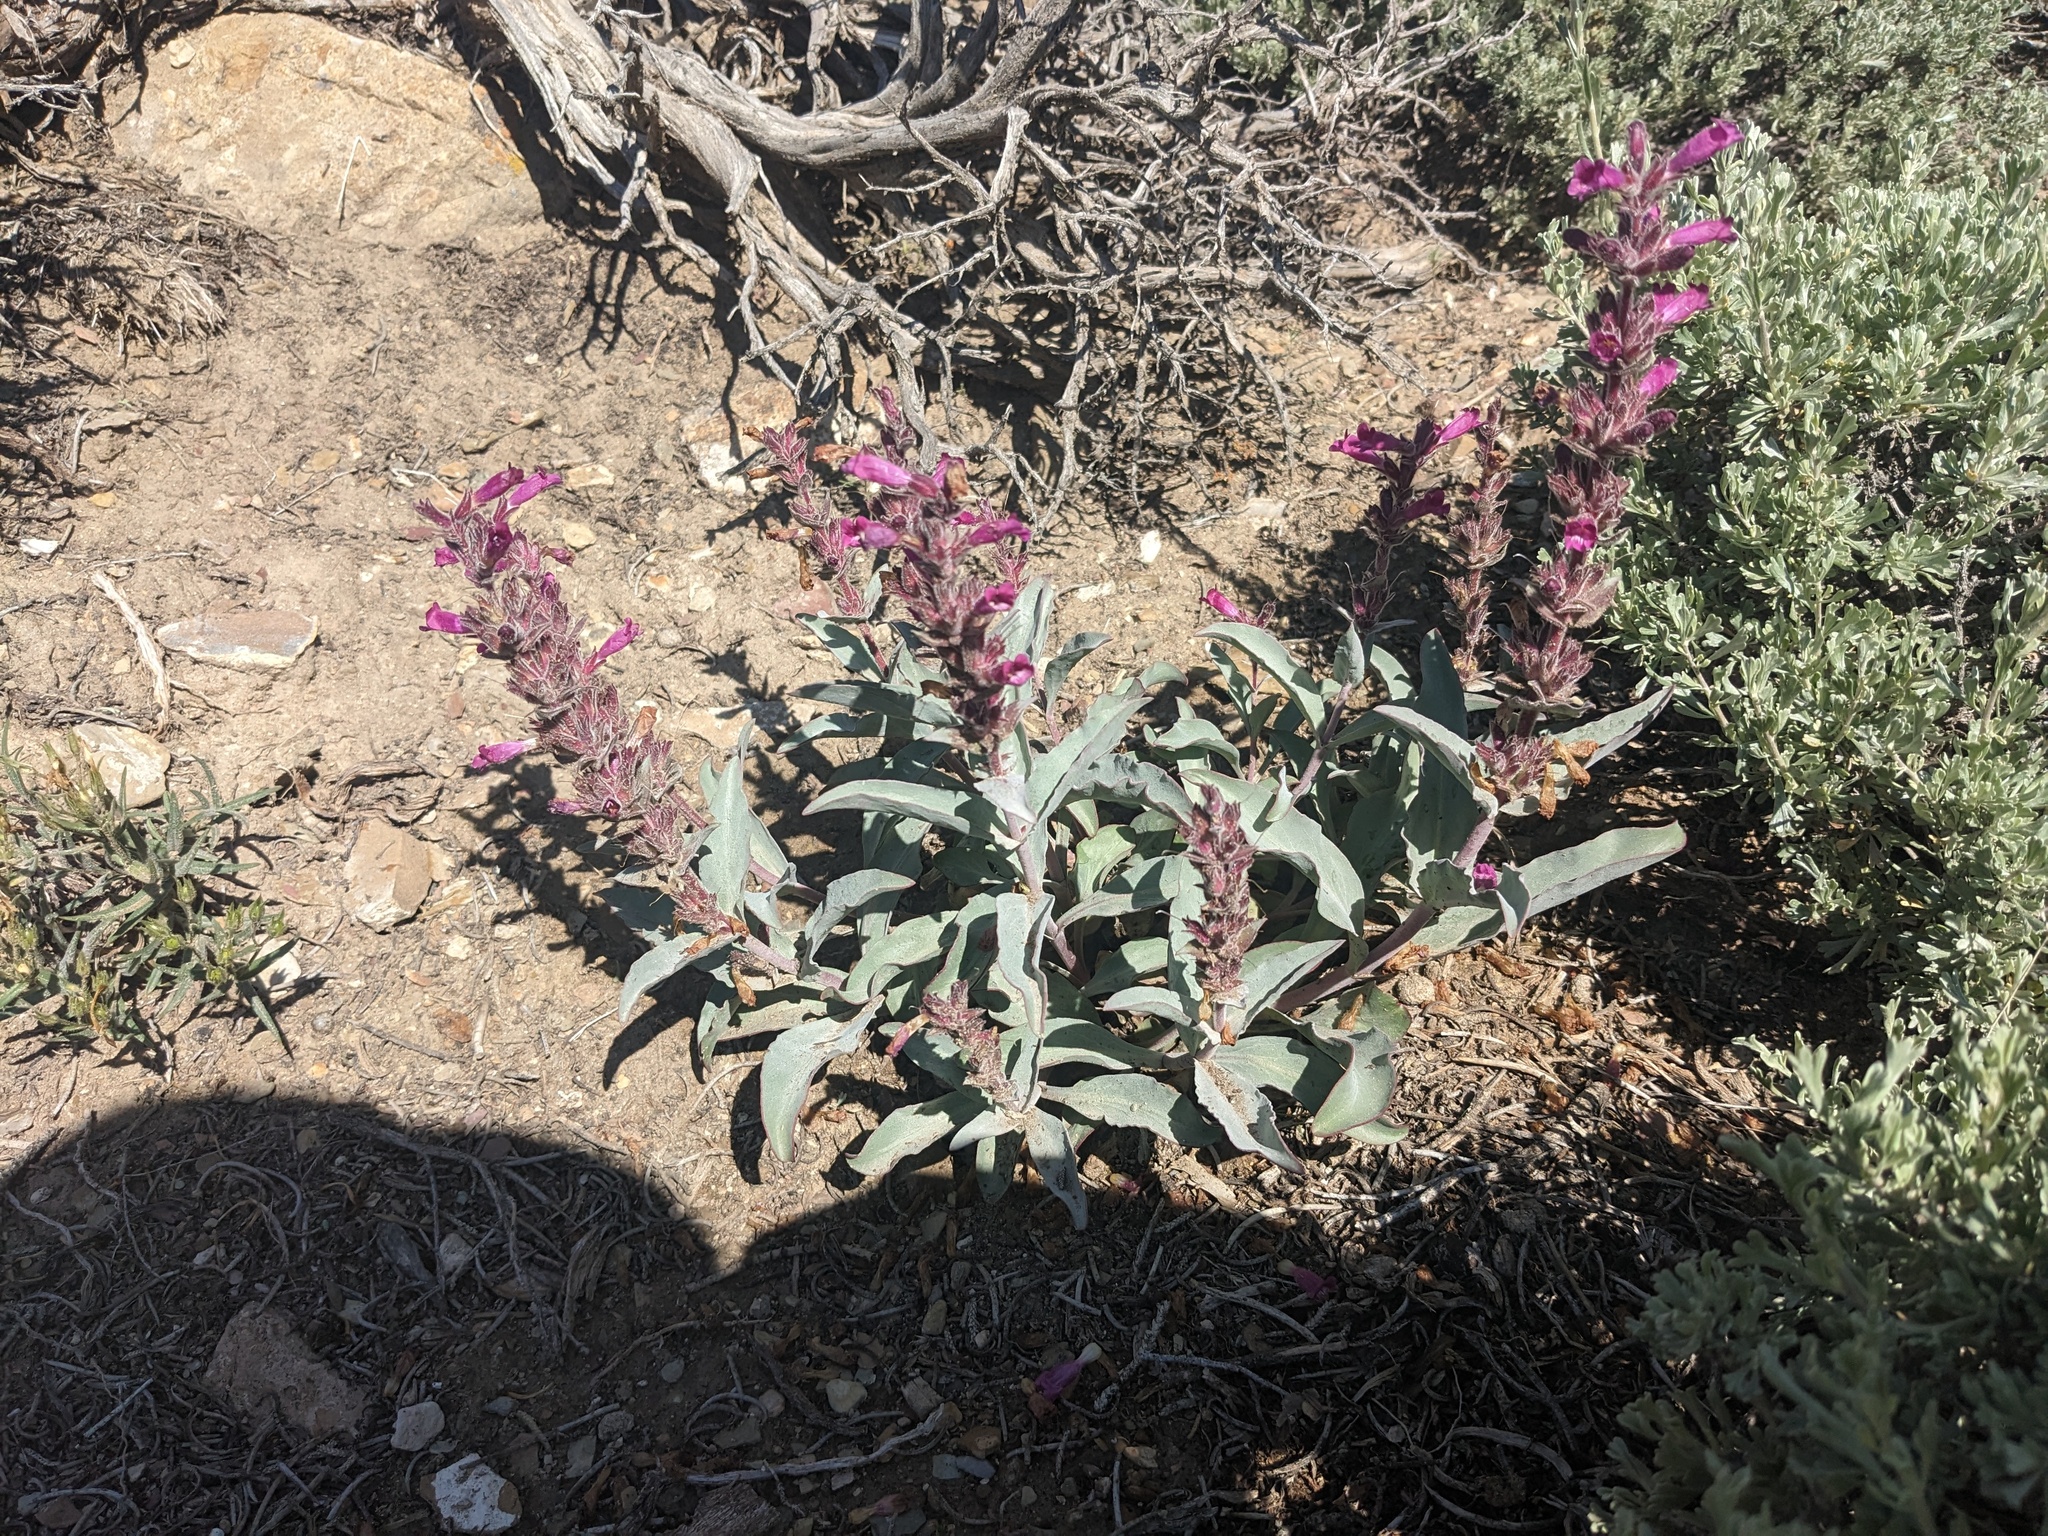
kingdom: Plantae
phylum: Tracheophyta
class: Magnoliopsida
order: Lamiales
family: Plantaginaceae
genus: Penstemon
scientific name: Penstemon monoensis
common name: Mono penstemon
